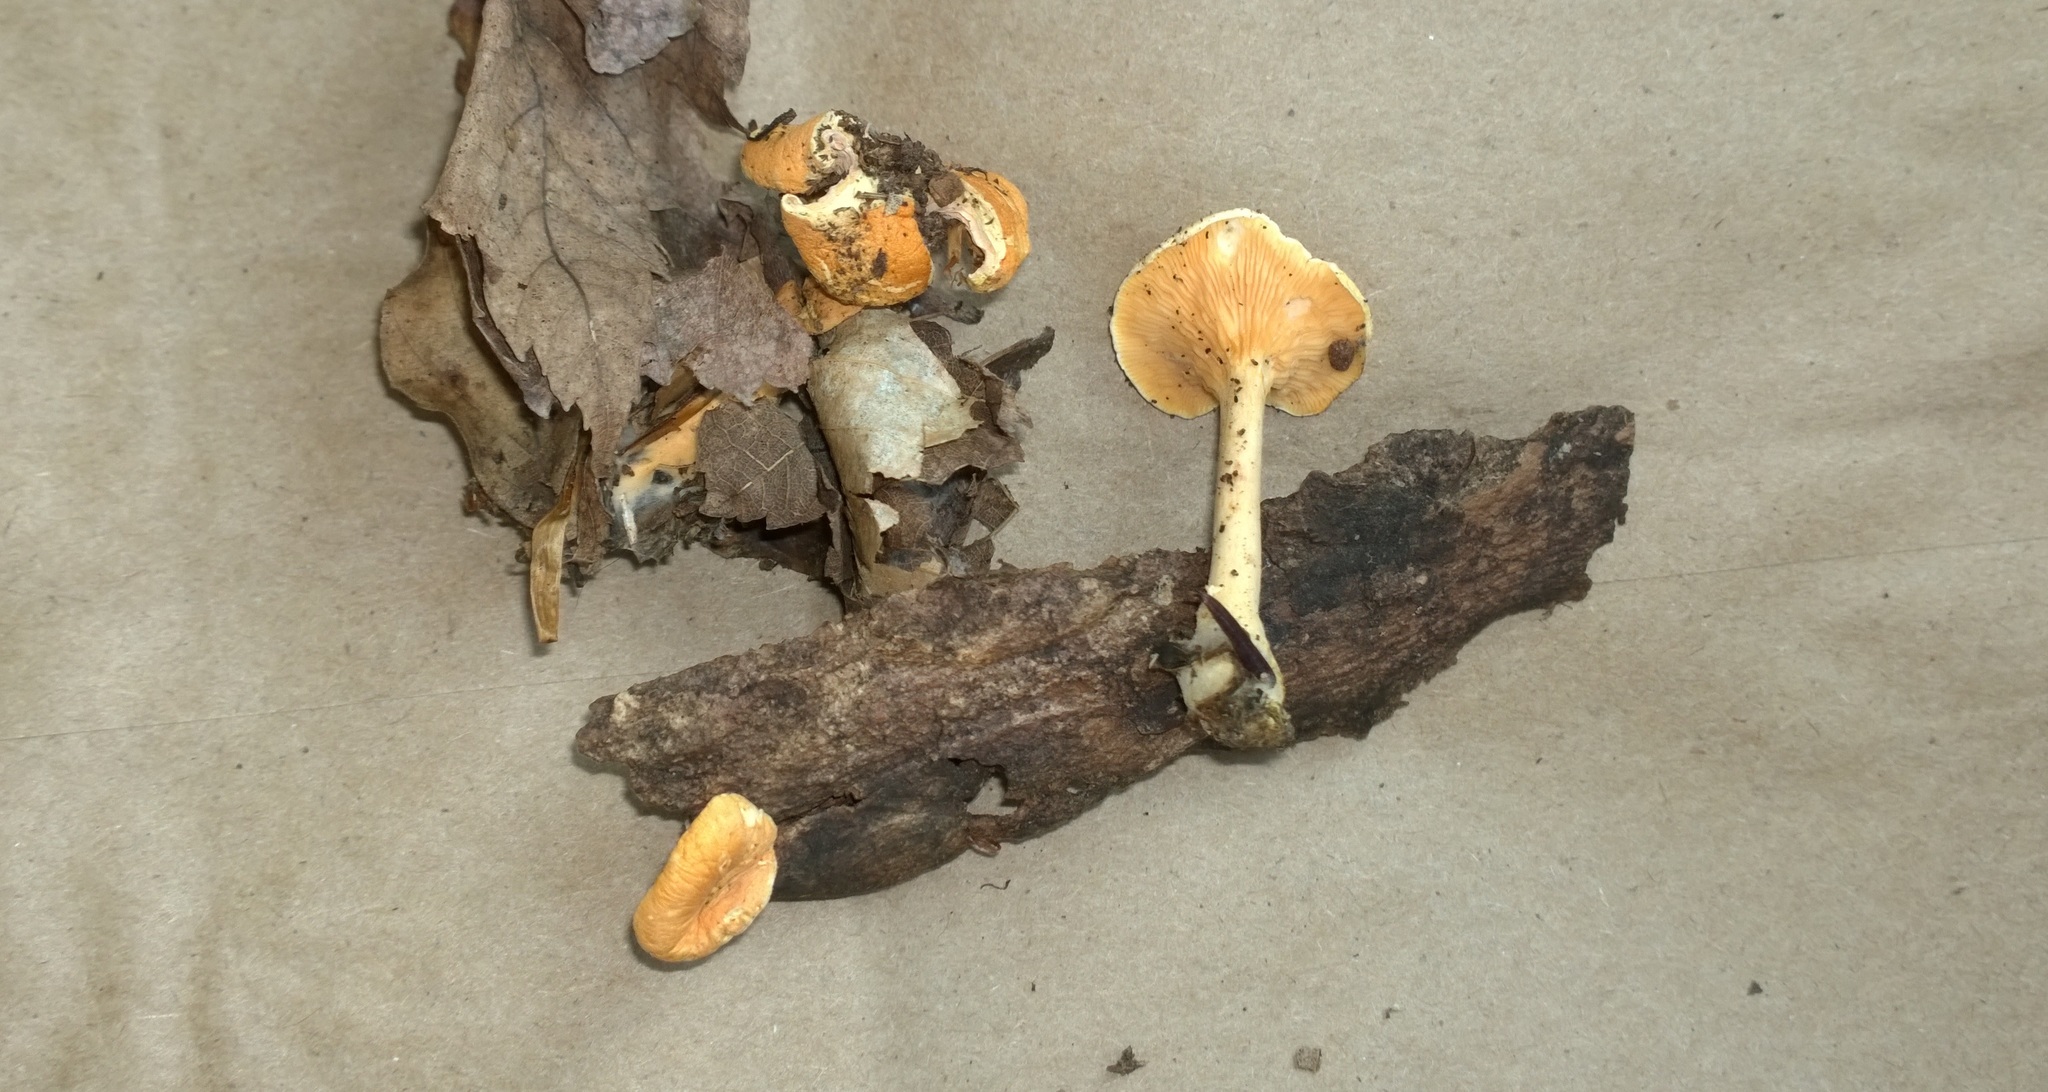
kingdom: Fungi
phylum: Basidiomycota
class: Agaricomycetes
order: Boletales
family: Hygrophoropsidaceae
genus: Hygrophoropsis
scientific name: Hygrophoropsis aurantiaca
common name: False chanterelle
